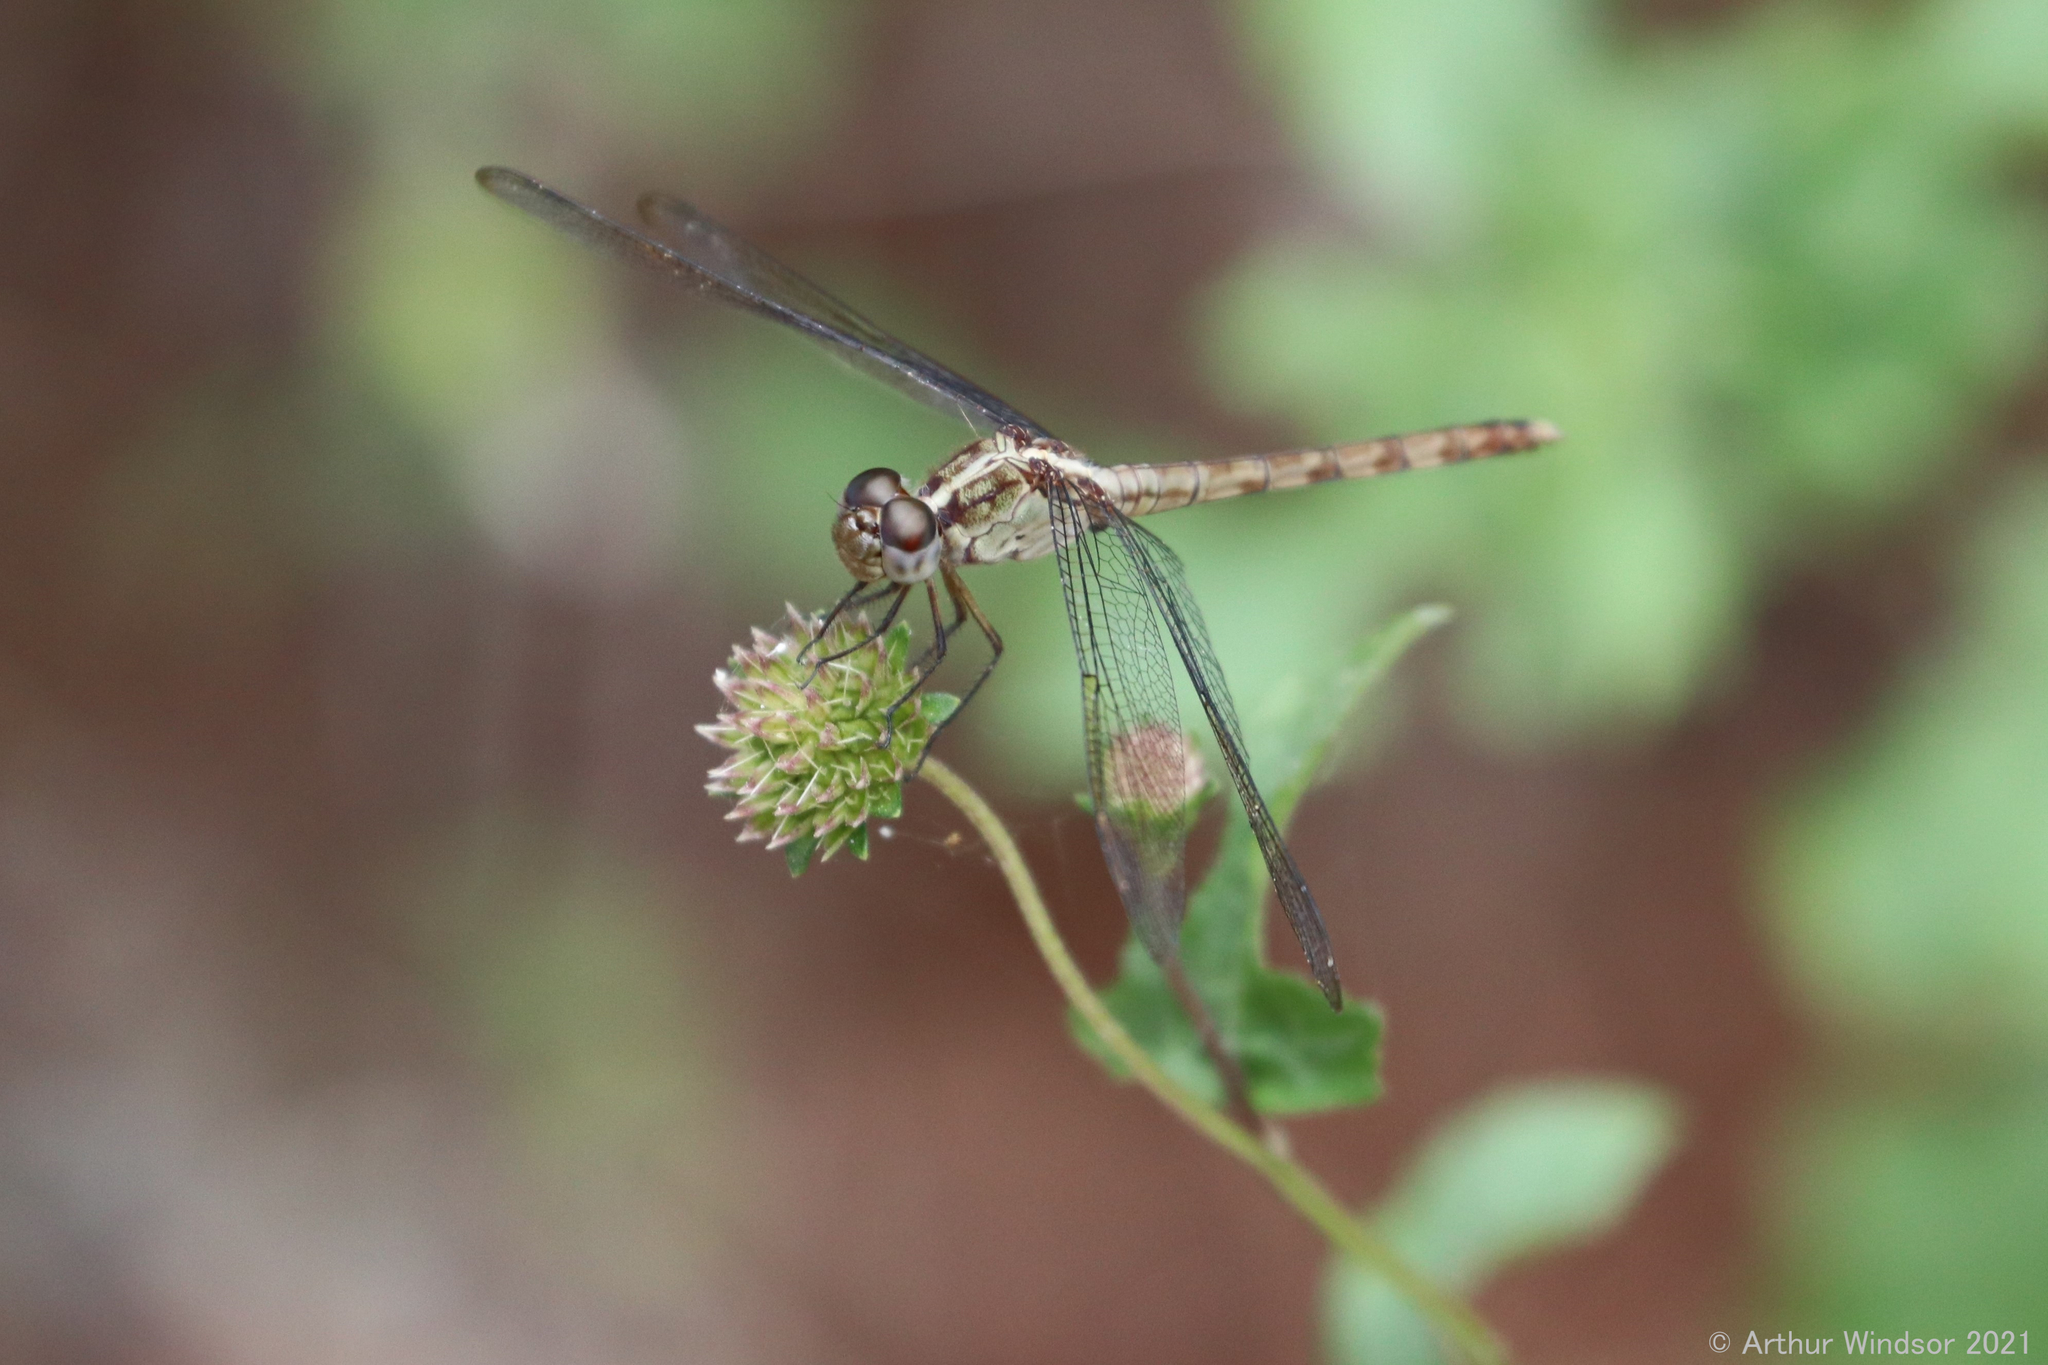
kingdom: Animalia
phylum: Arthropoda
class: Insecta
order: Odonata
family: Libellulidae
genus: Erythrodiplax
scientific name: Erythrodiplax umbrata
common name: Band-winged dragonlet
